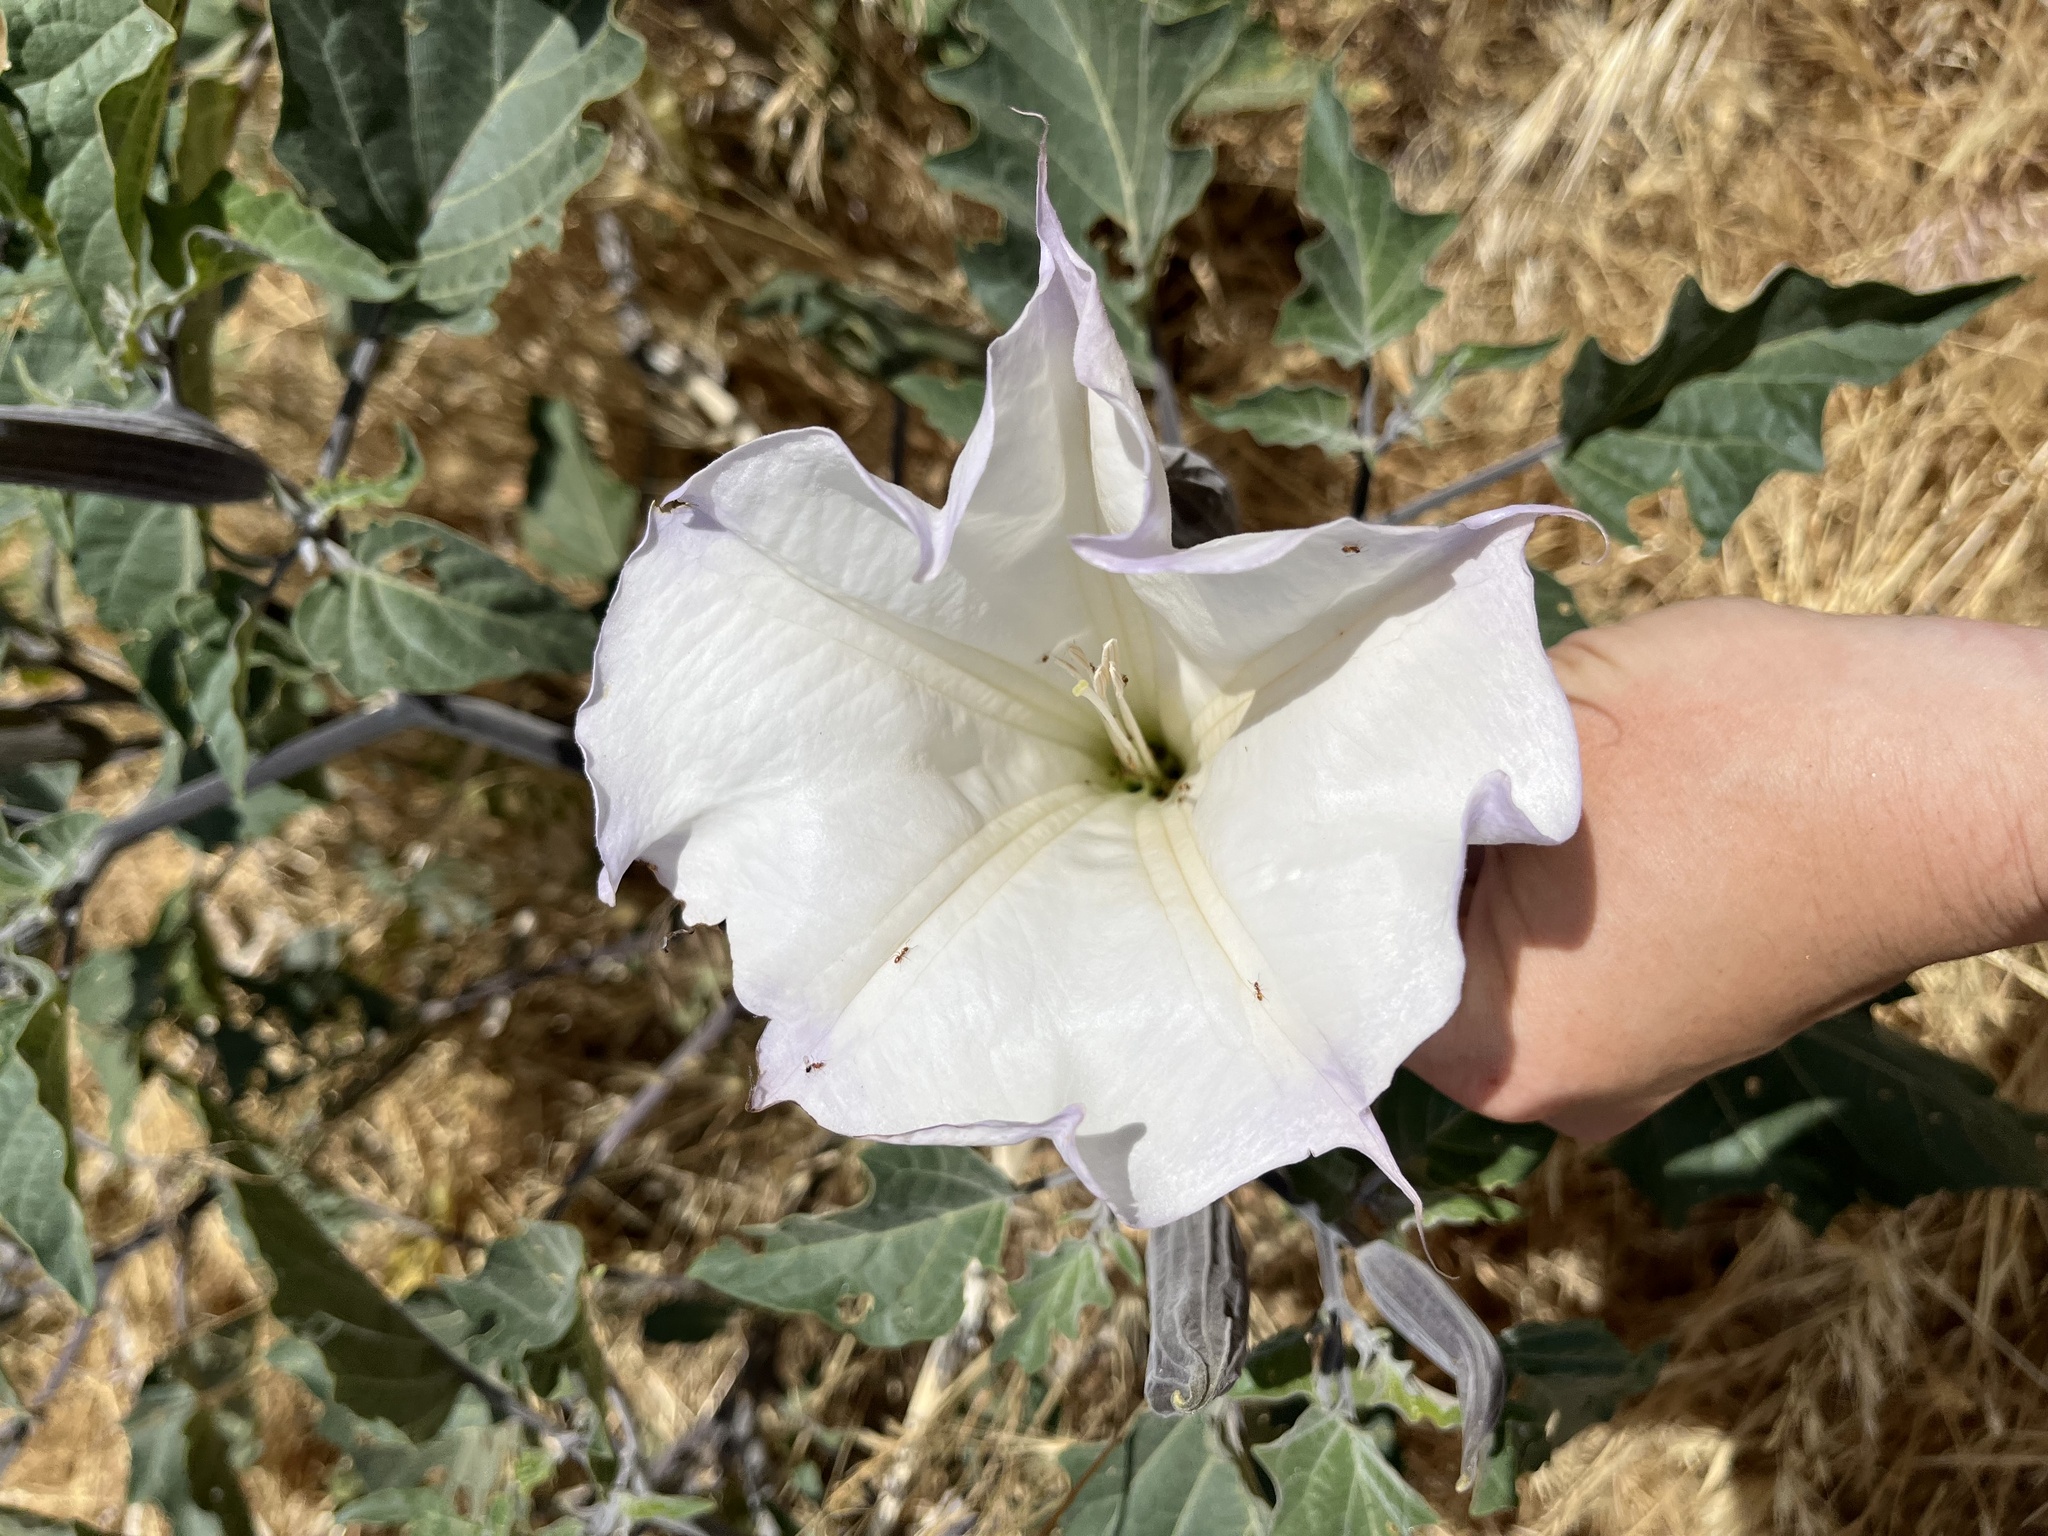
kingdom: Plantae
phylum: Tracheophyta
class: Magnoliopsida
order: Solanales
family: Solanaceae
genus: Datura
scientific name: Datura wrightii
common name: Sacred thorn-apple
